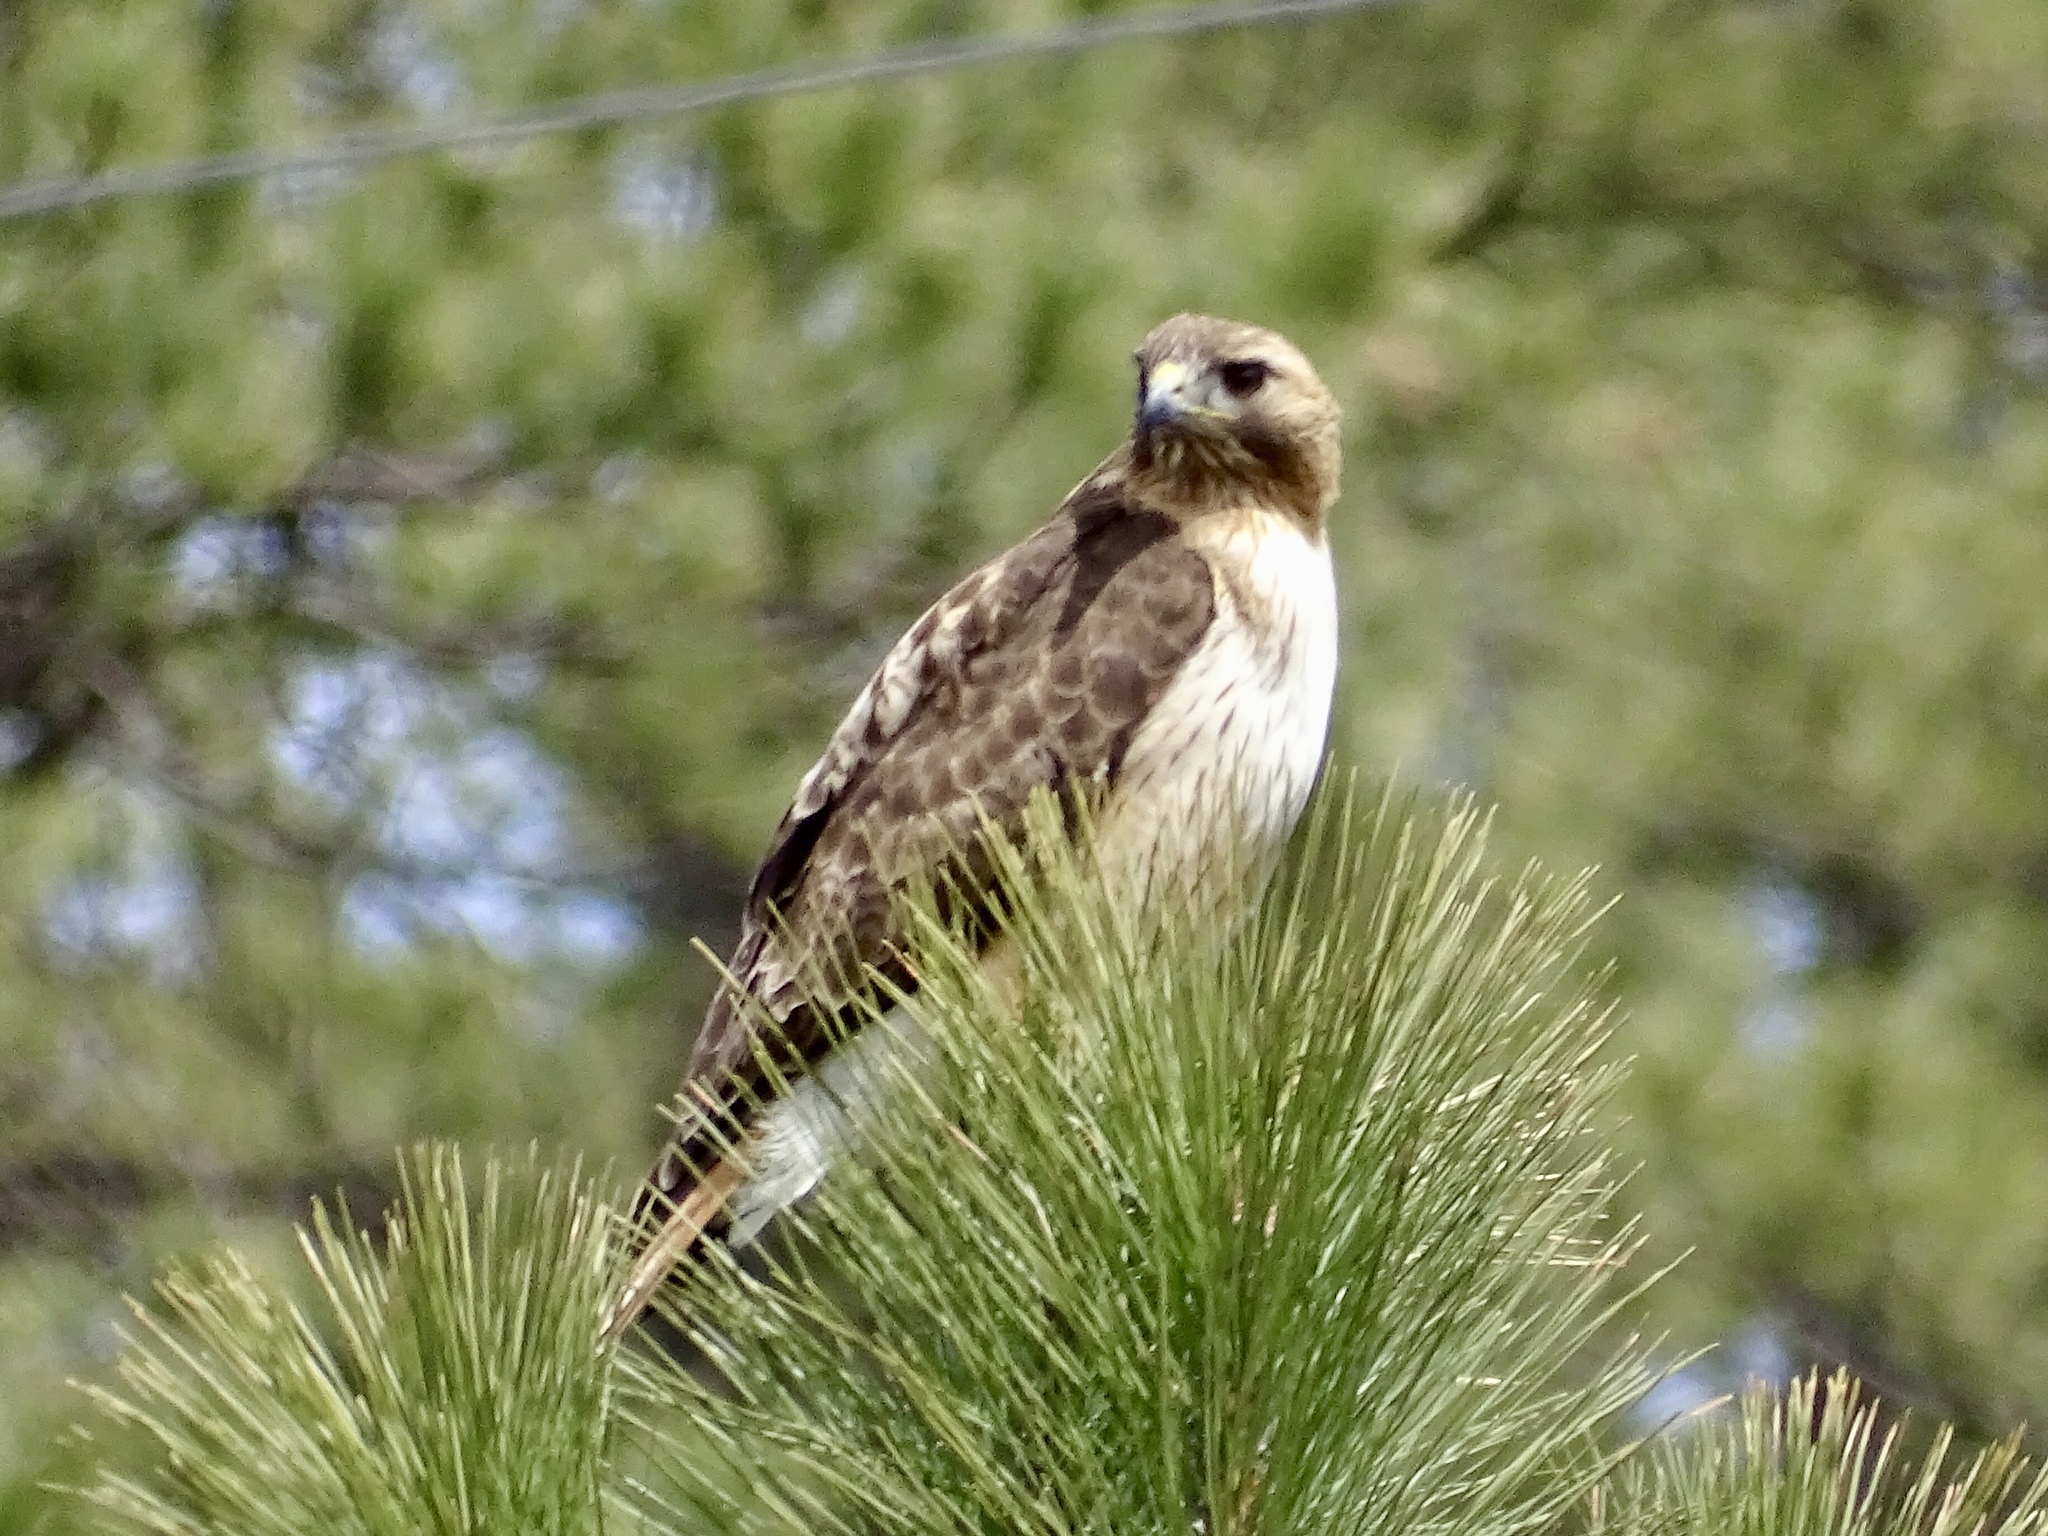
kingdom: Animalia
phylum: Chordata
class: Aves
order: Accipitriformes
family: Accipitridae
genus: Buteo
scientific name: Buteo jamaicensis
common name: Red-tailed hawk
